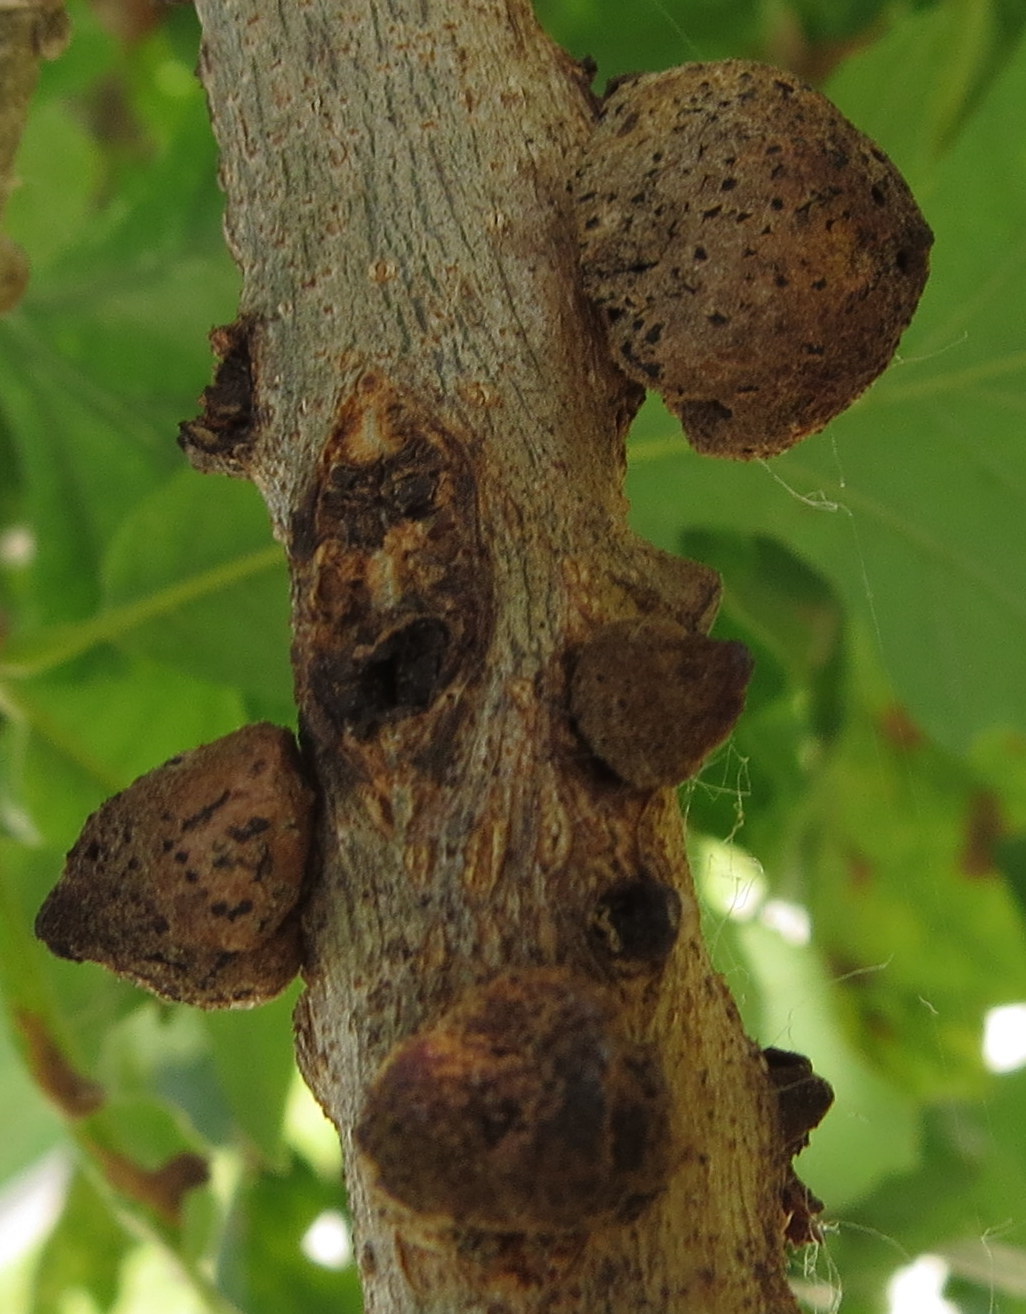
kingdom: Animalia
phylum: Arthropoda
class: Insecta
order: Hymenoptera
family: Cynipidae
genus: Disholcaspis
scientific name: Disholcaspis
